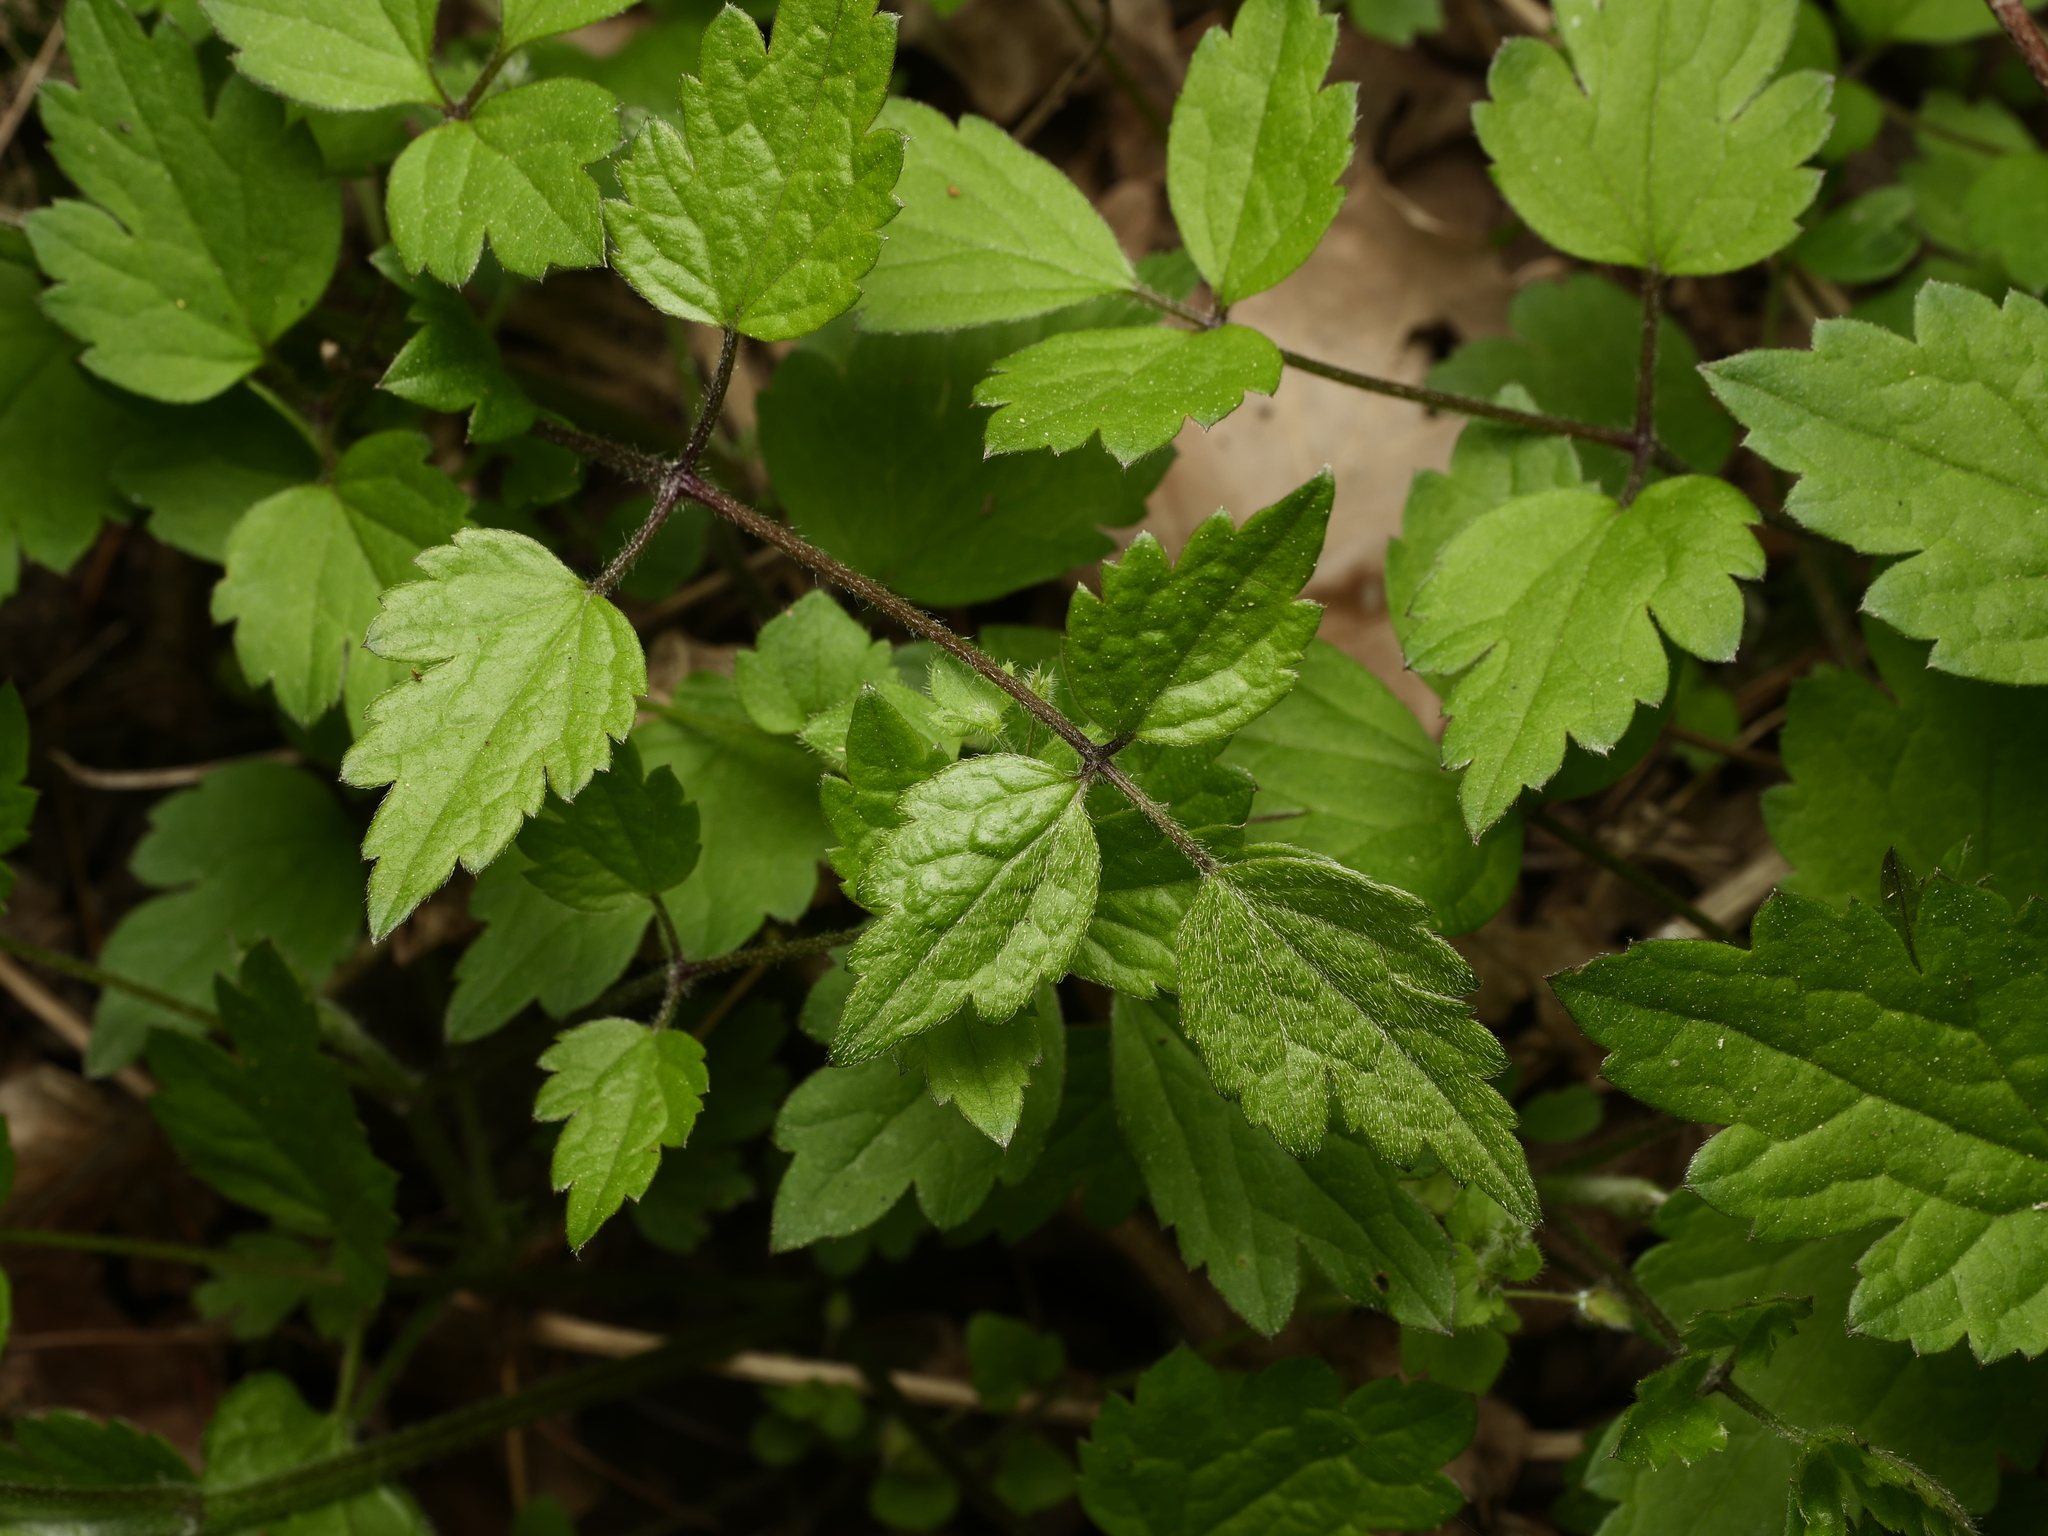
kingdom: Plantae
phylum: Tracheophyta
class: Magnoliopsida
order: Ranunculales
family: Ranunculaceae
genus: Clematis
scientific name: Clematis vitalba
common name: Evergreen clematis
